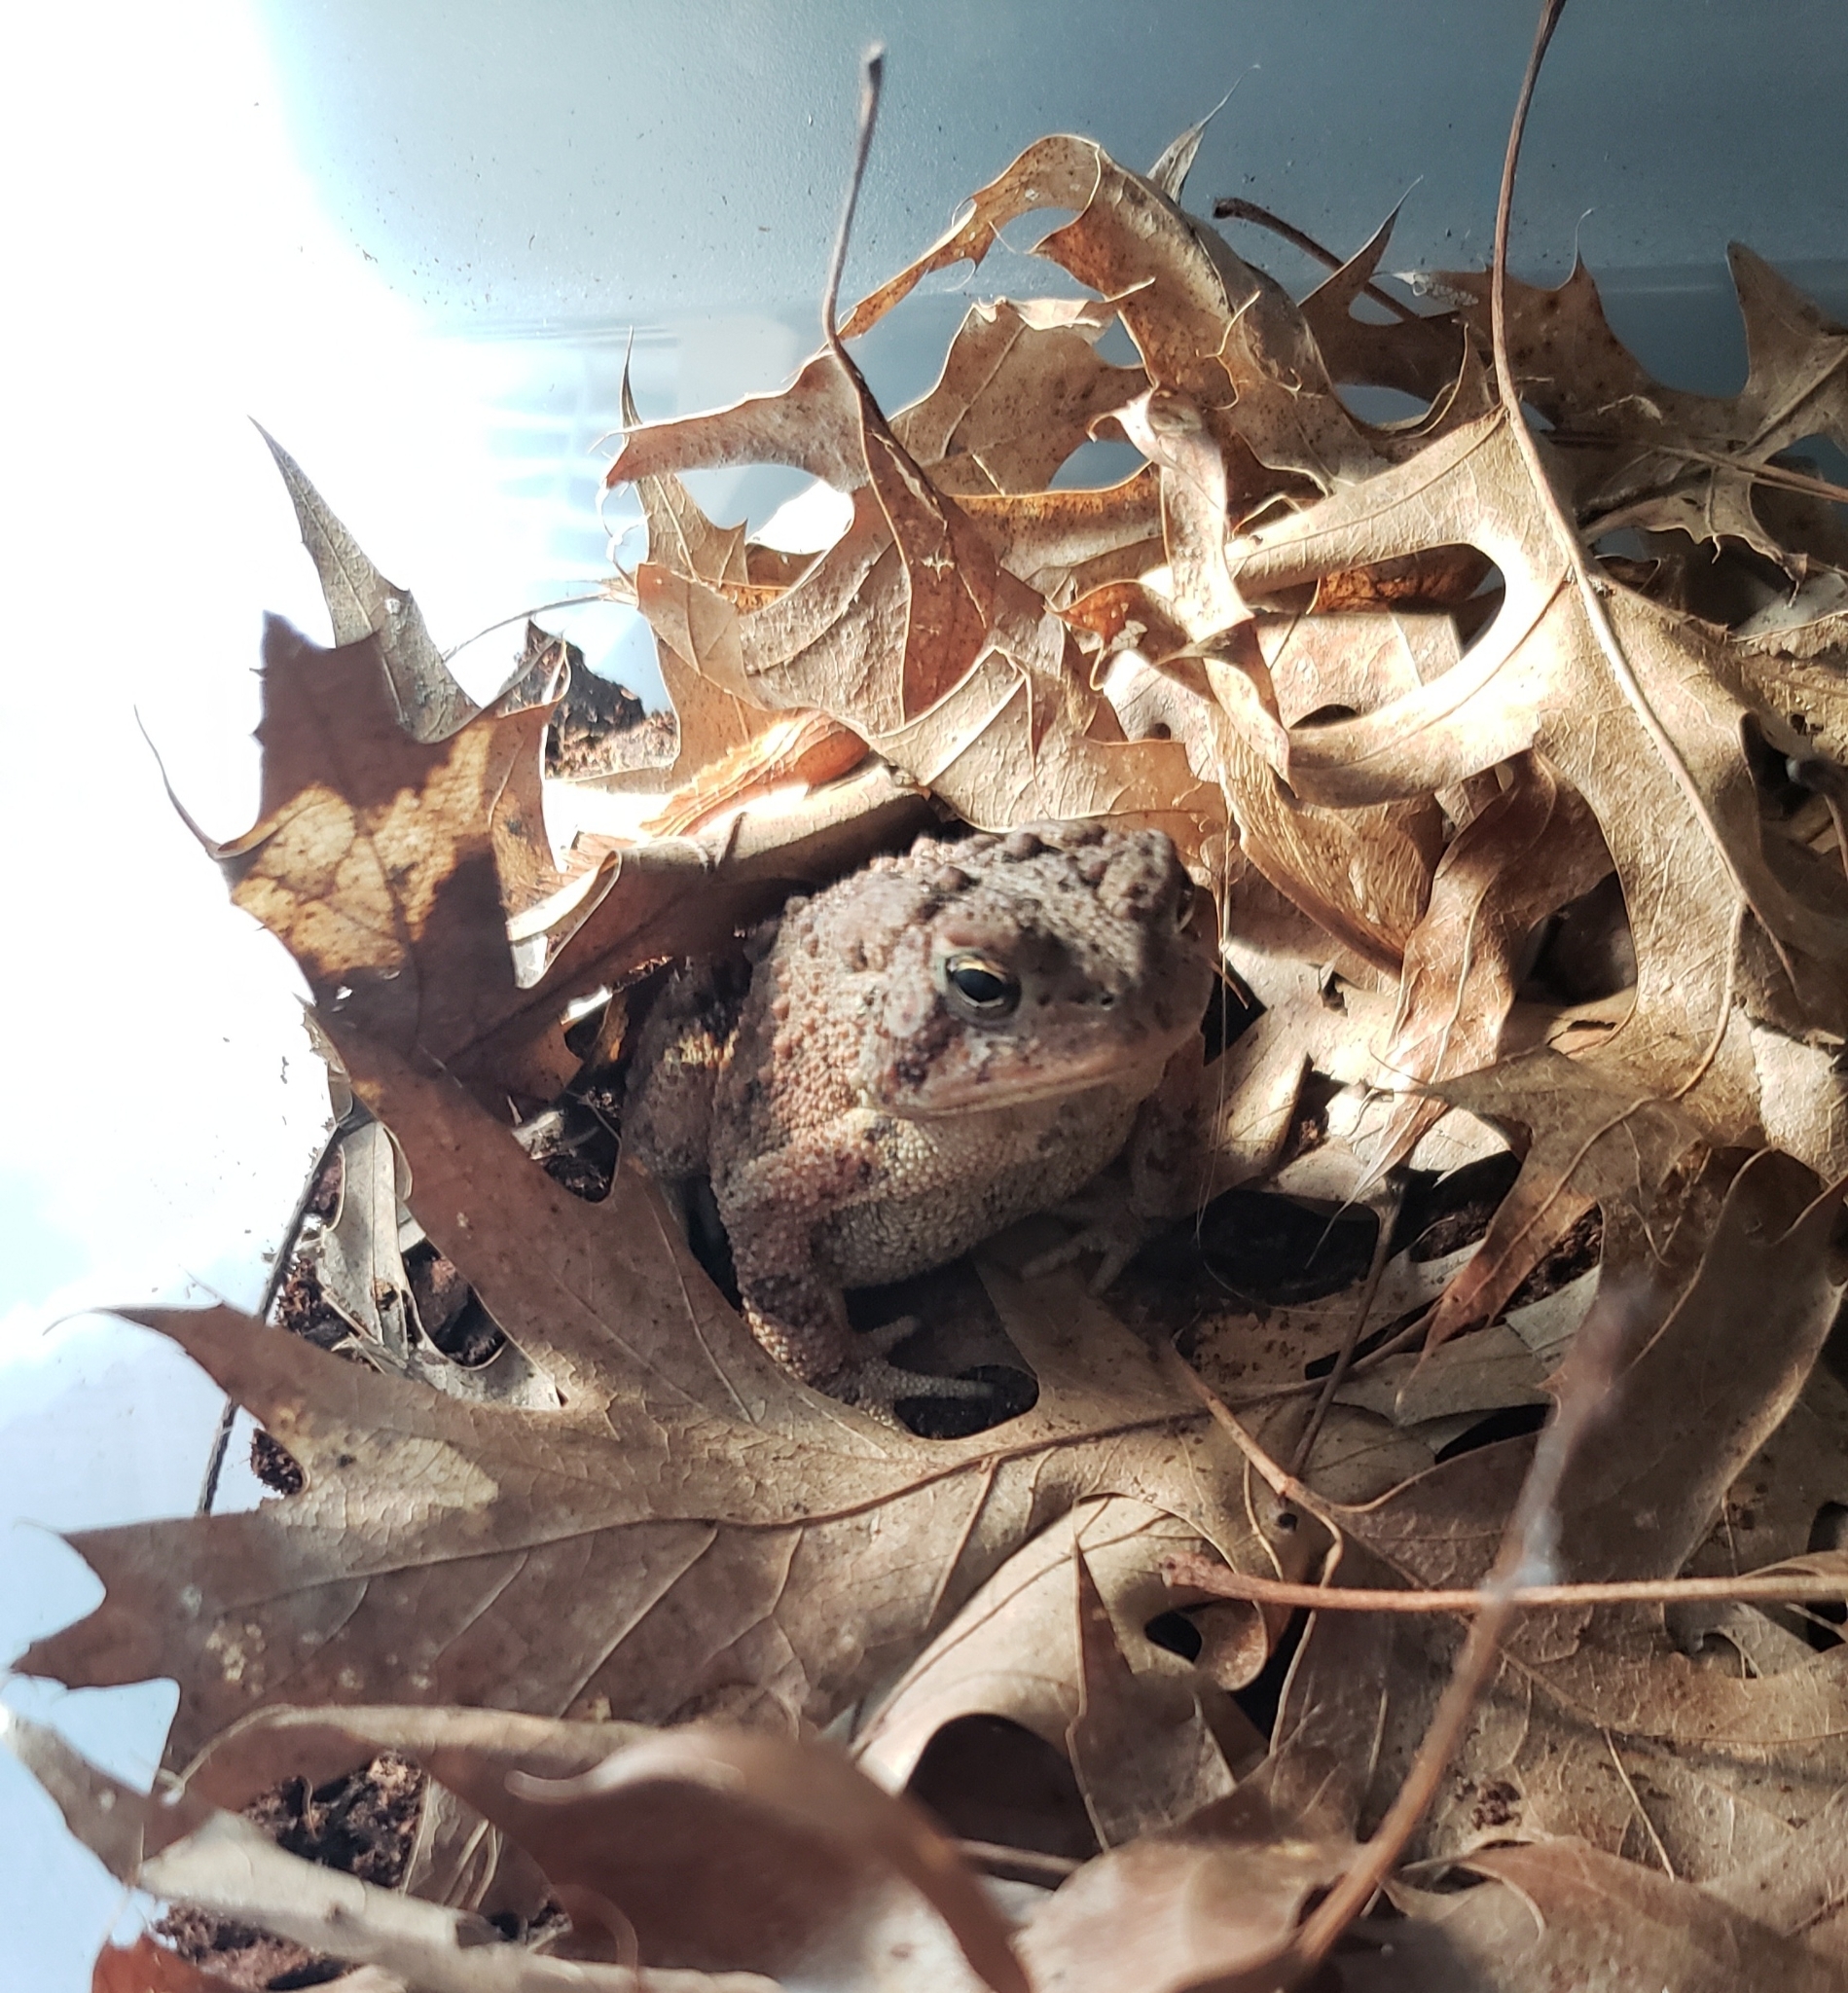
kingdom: Animalia
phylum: Chordata
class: Amphibia
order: Anura
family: Bufonidae
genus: Anaxyrus
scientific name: Anaxyrus americanus
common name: American toad
